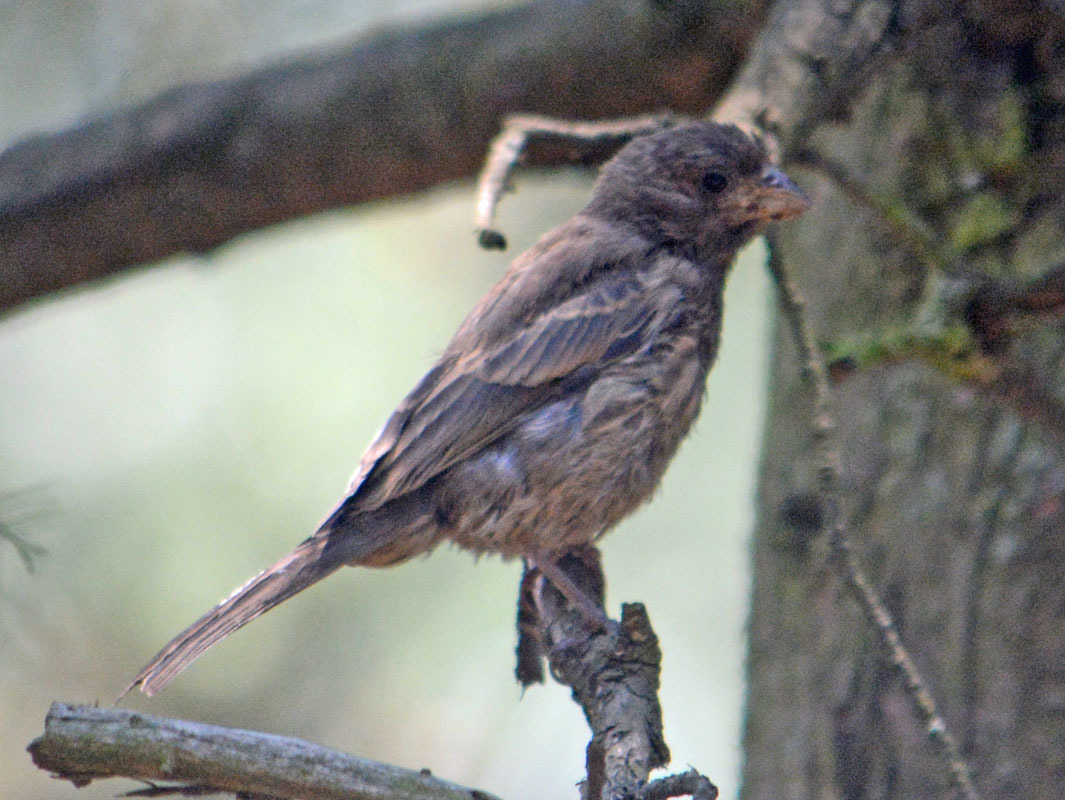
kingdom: Animalia
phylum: Chordata
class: Aves
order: Passeriformes
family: Fringillidae
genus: Haemorhous
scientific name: Haemorhous mexicanus
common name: House finch
